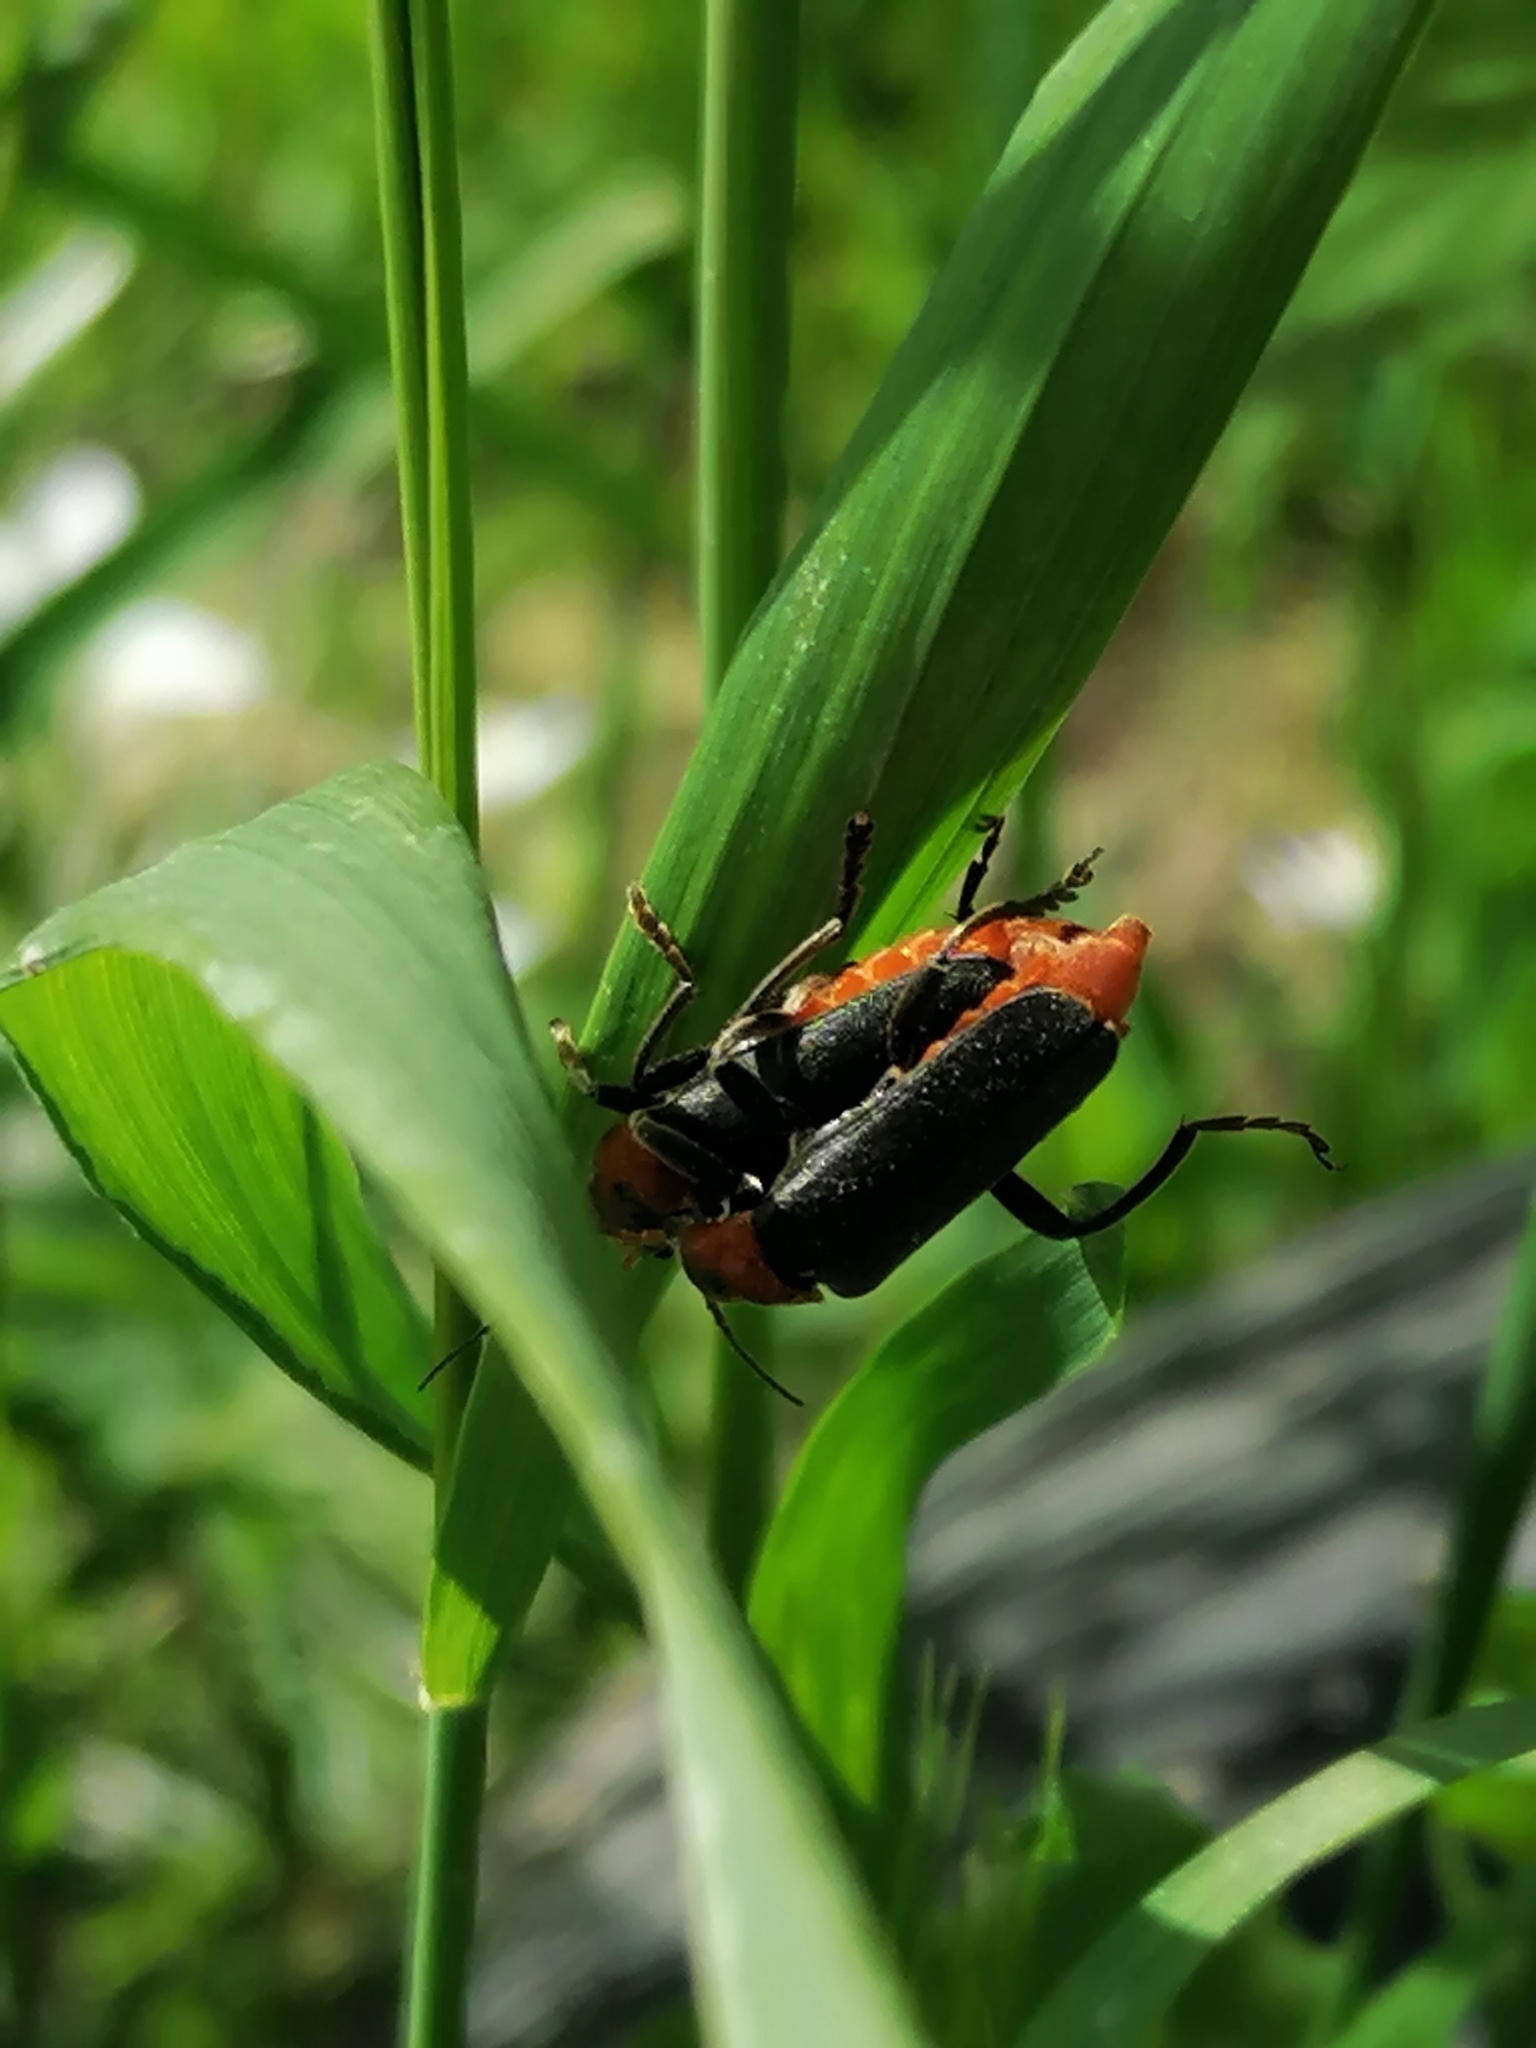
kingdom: Animalia
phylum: Arthropoda
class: Insecta
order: Coleoptera
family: Cantharidae
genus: Cantharis
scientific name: Cantharis fusca
